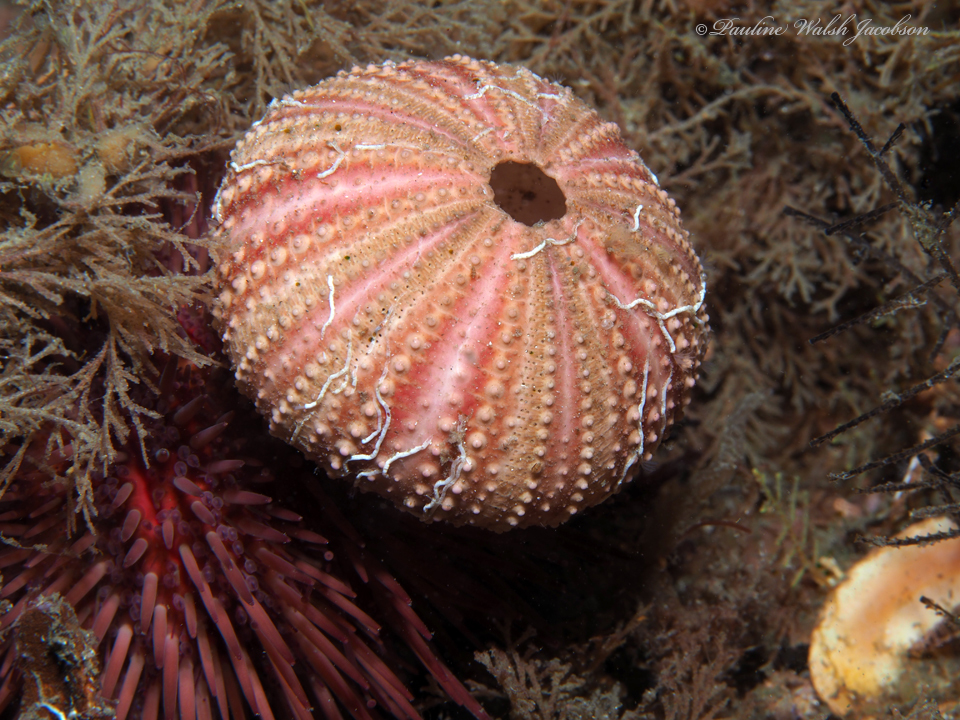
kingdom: Animalia
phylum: Echinodermata
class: Echinoidea
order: Camarodonta
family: Toxopneustidae
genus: Lytechinus
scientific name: Lytechinus variegatus
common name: Variegated urchin
